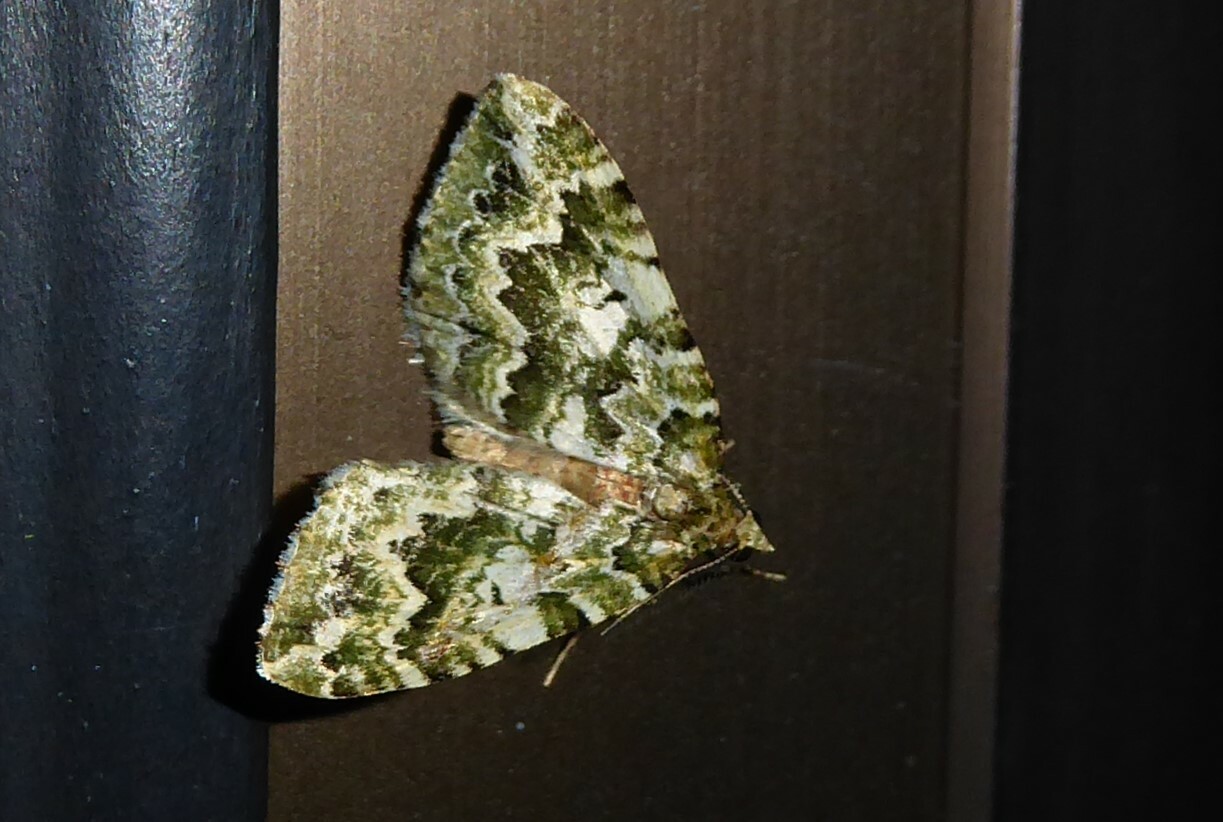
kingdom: Animalia
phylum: Arthropoda
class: Insecta
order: Lepidoptera
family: Geometridae
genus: Asaphodes
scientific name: Asaphodes beata
